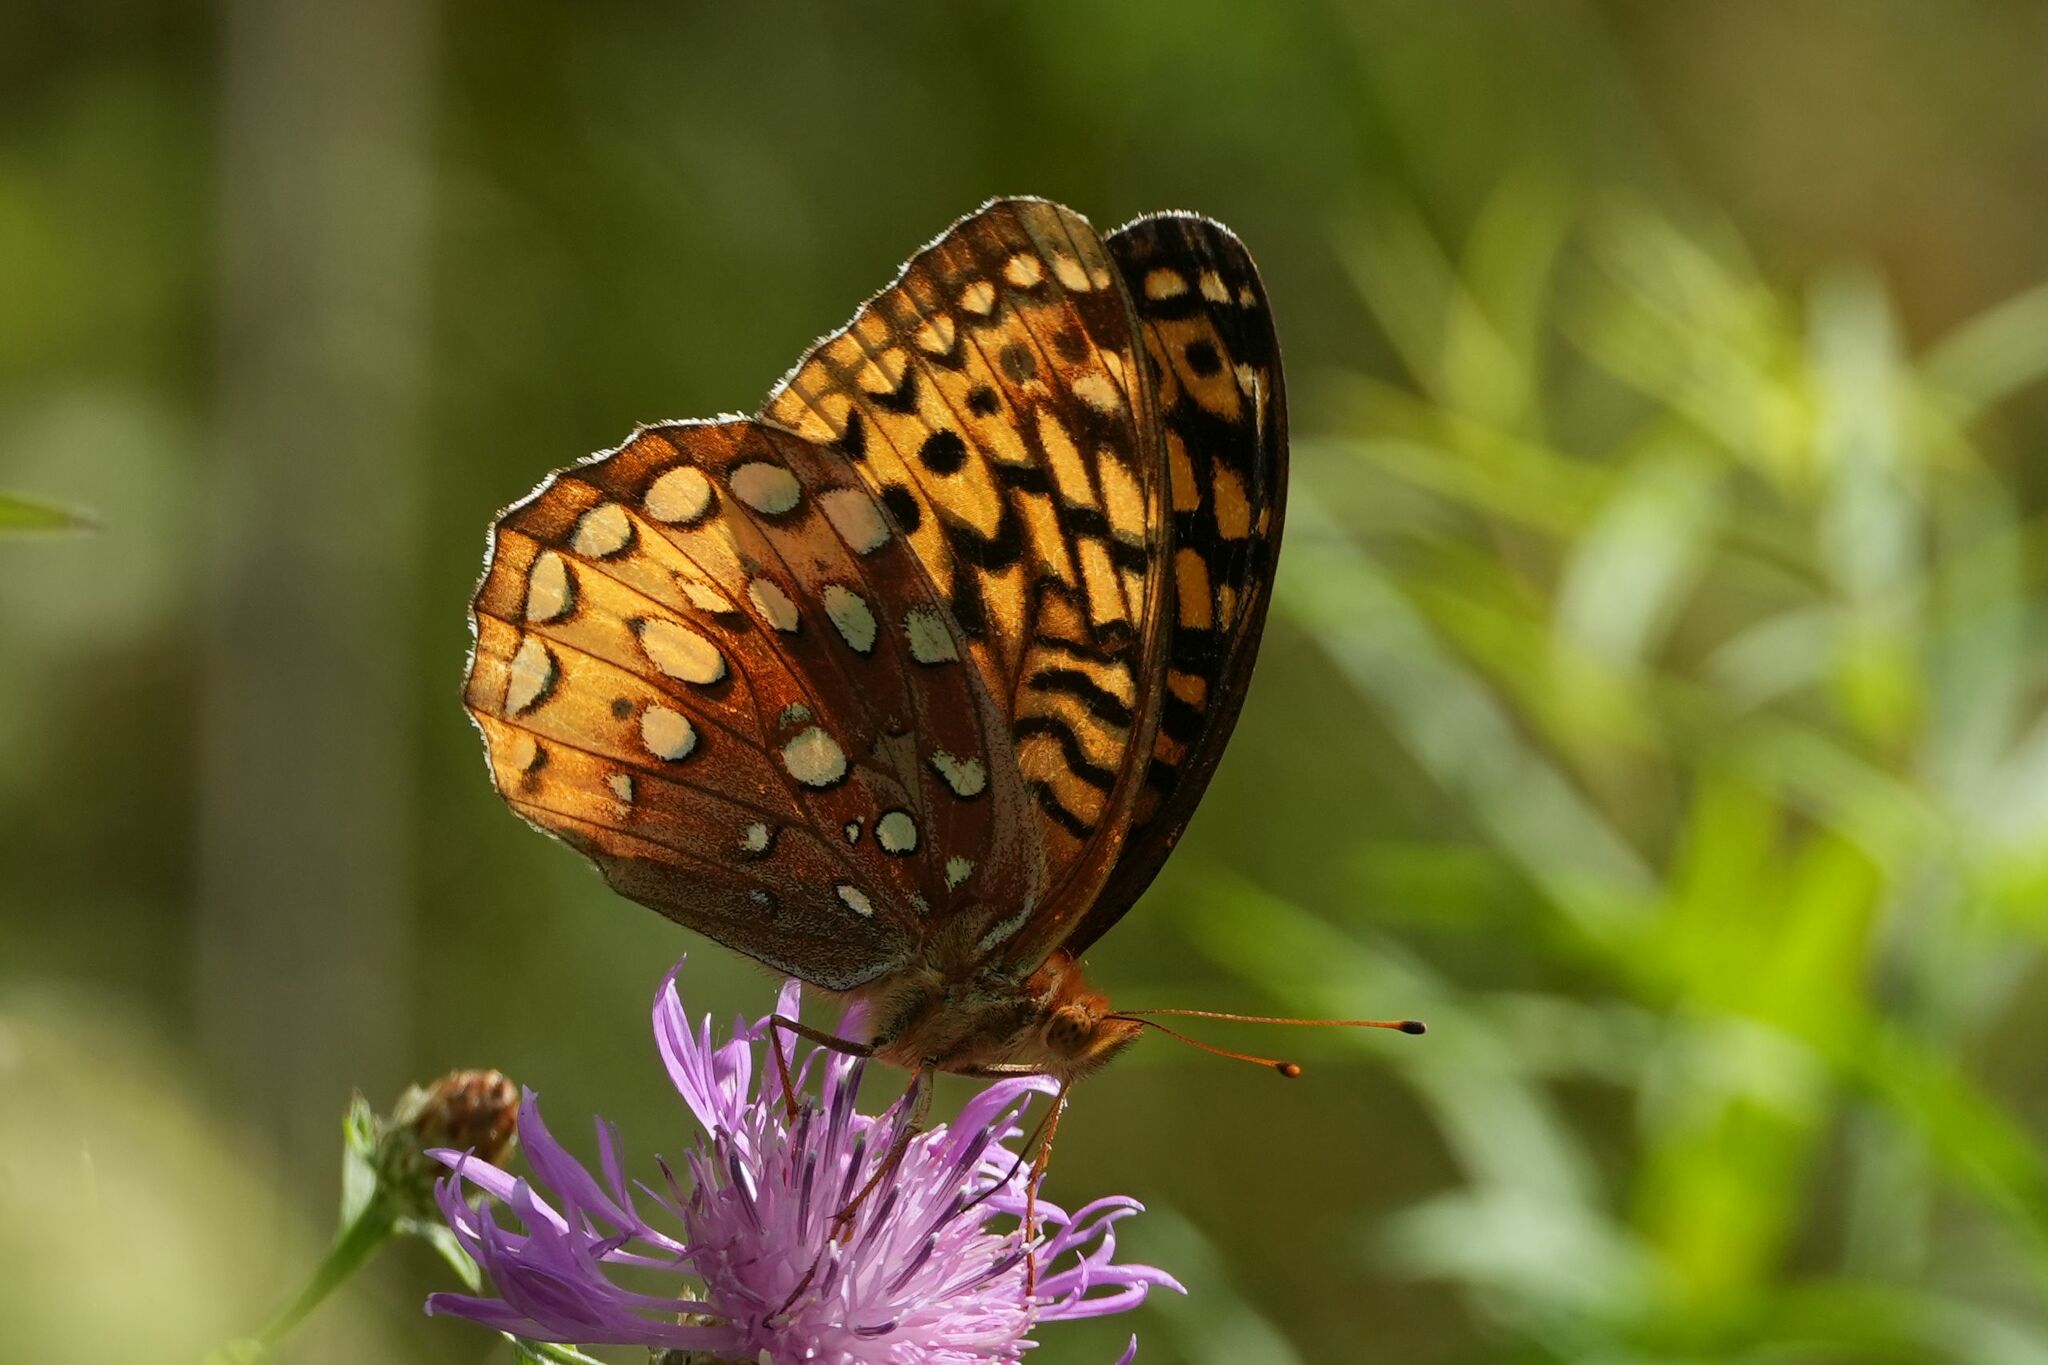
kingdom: Animalia
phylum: Arthropoda
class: Insecta
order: Lepidoptera
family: Nymphalidae
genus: Speyeria
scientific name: Speyeria cybele
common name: Great spangled fritillary
